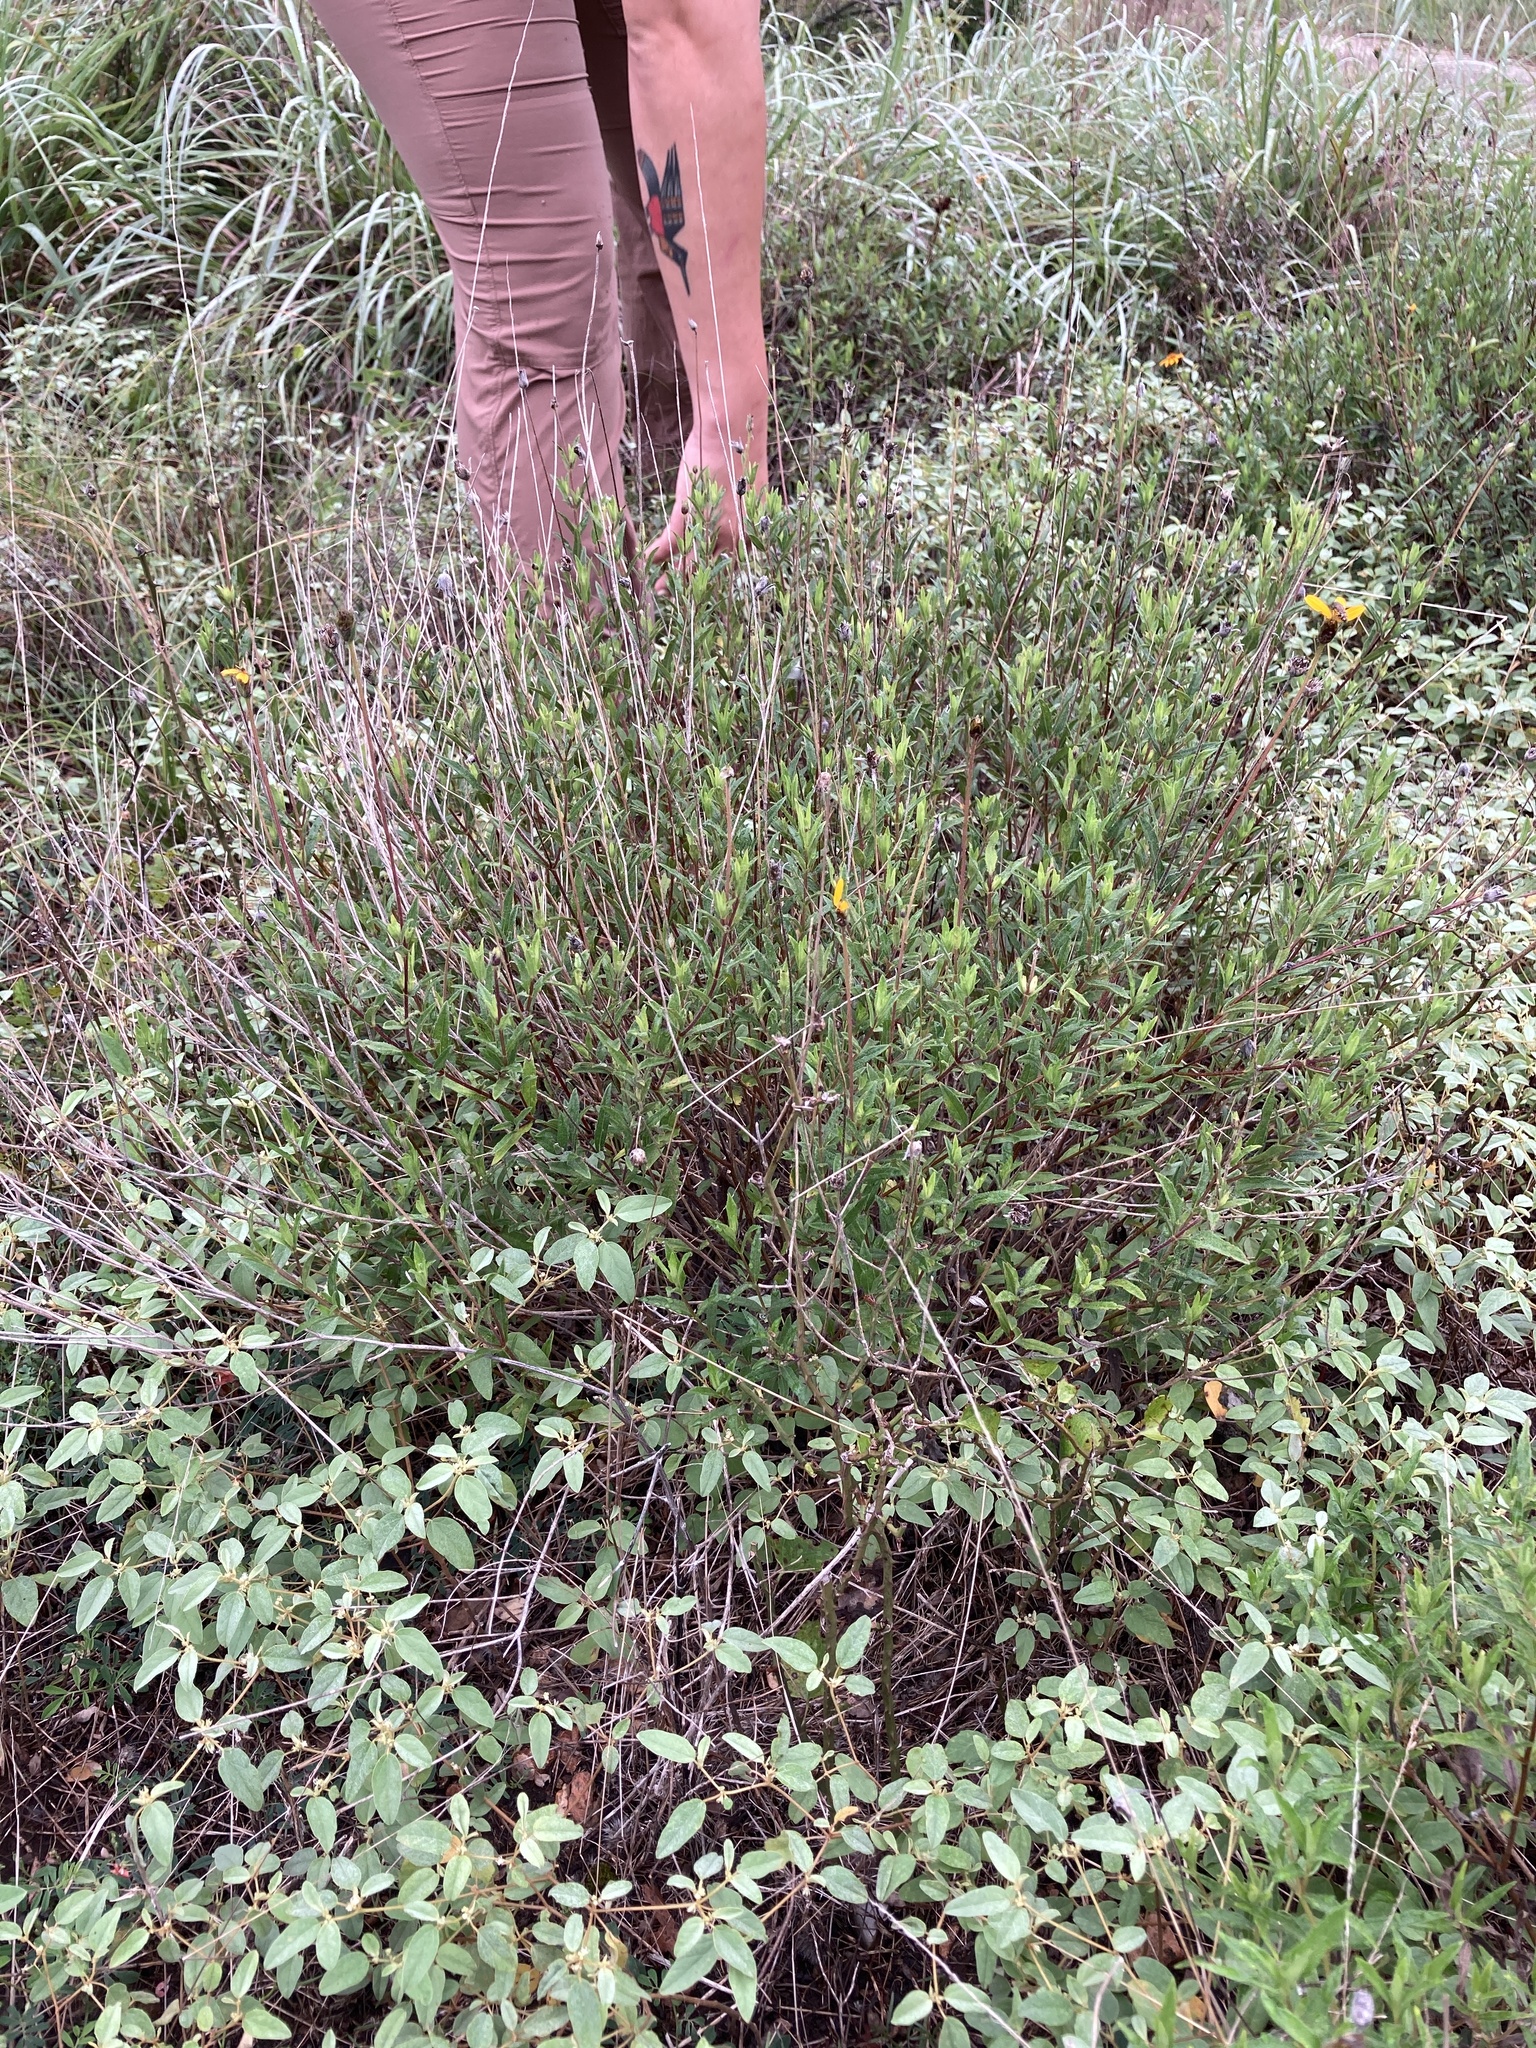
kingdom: Plantae
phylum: Tracheophyta
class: Magnoliopsida
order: Asterales
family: Asteraceae
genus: Wedelia
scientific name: Wedelia acapulcensis
